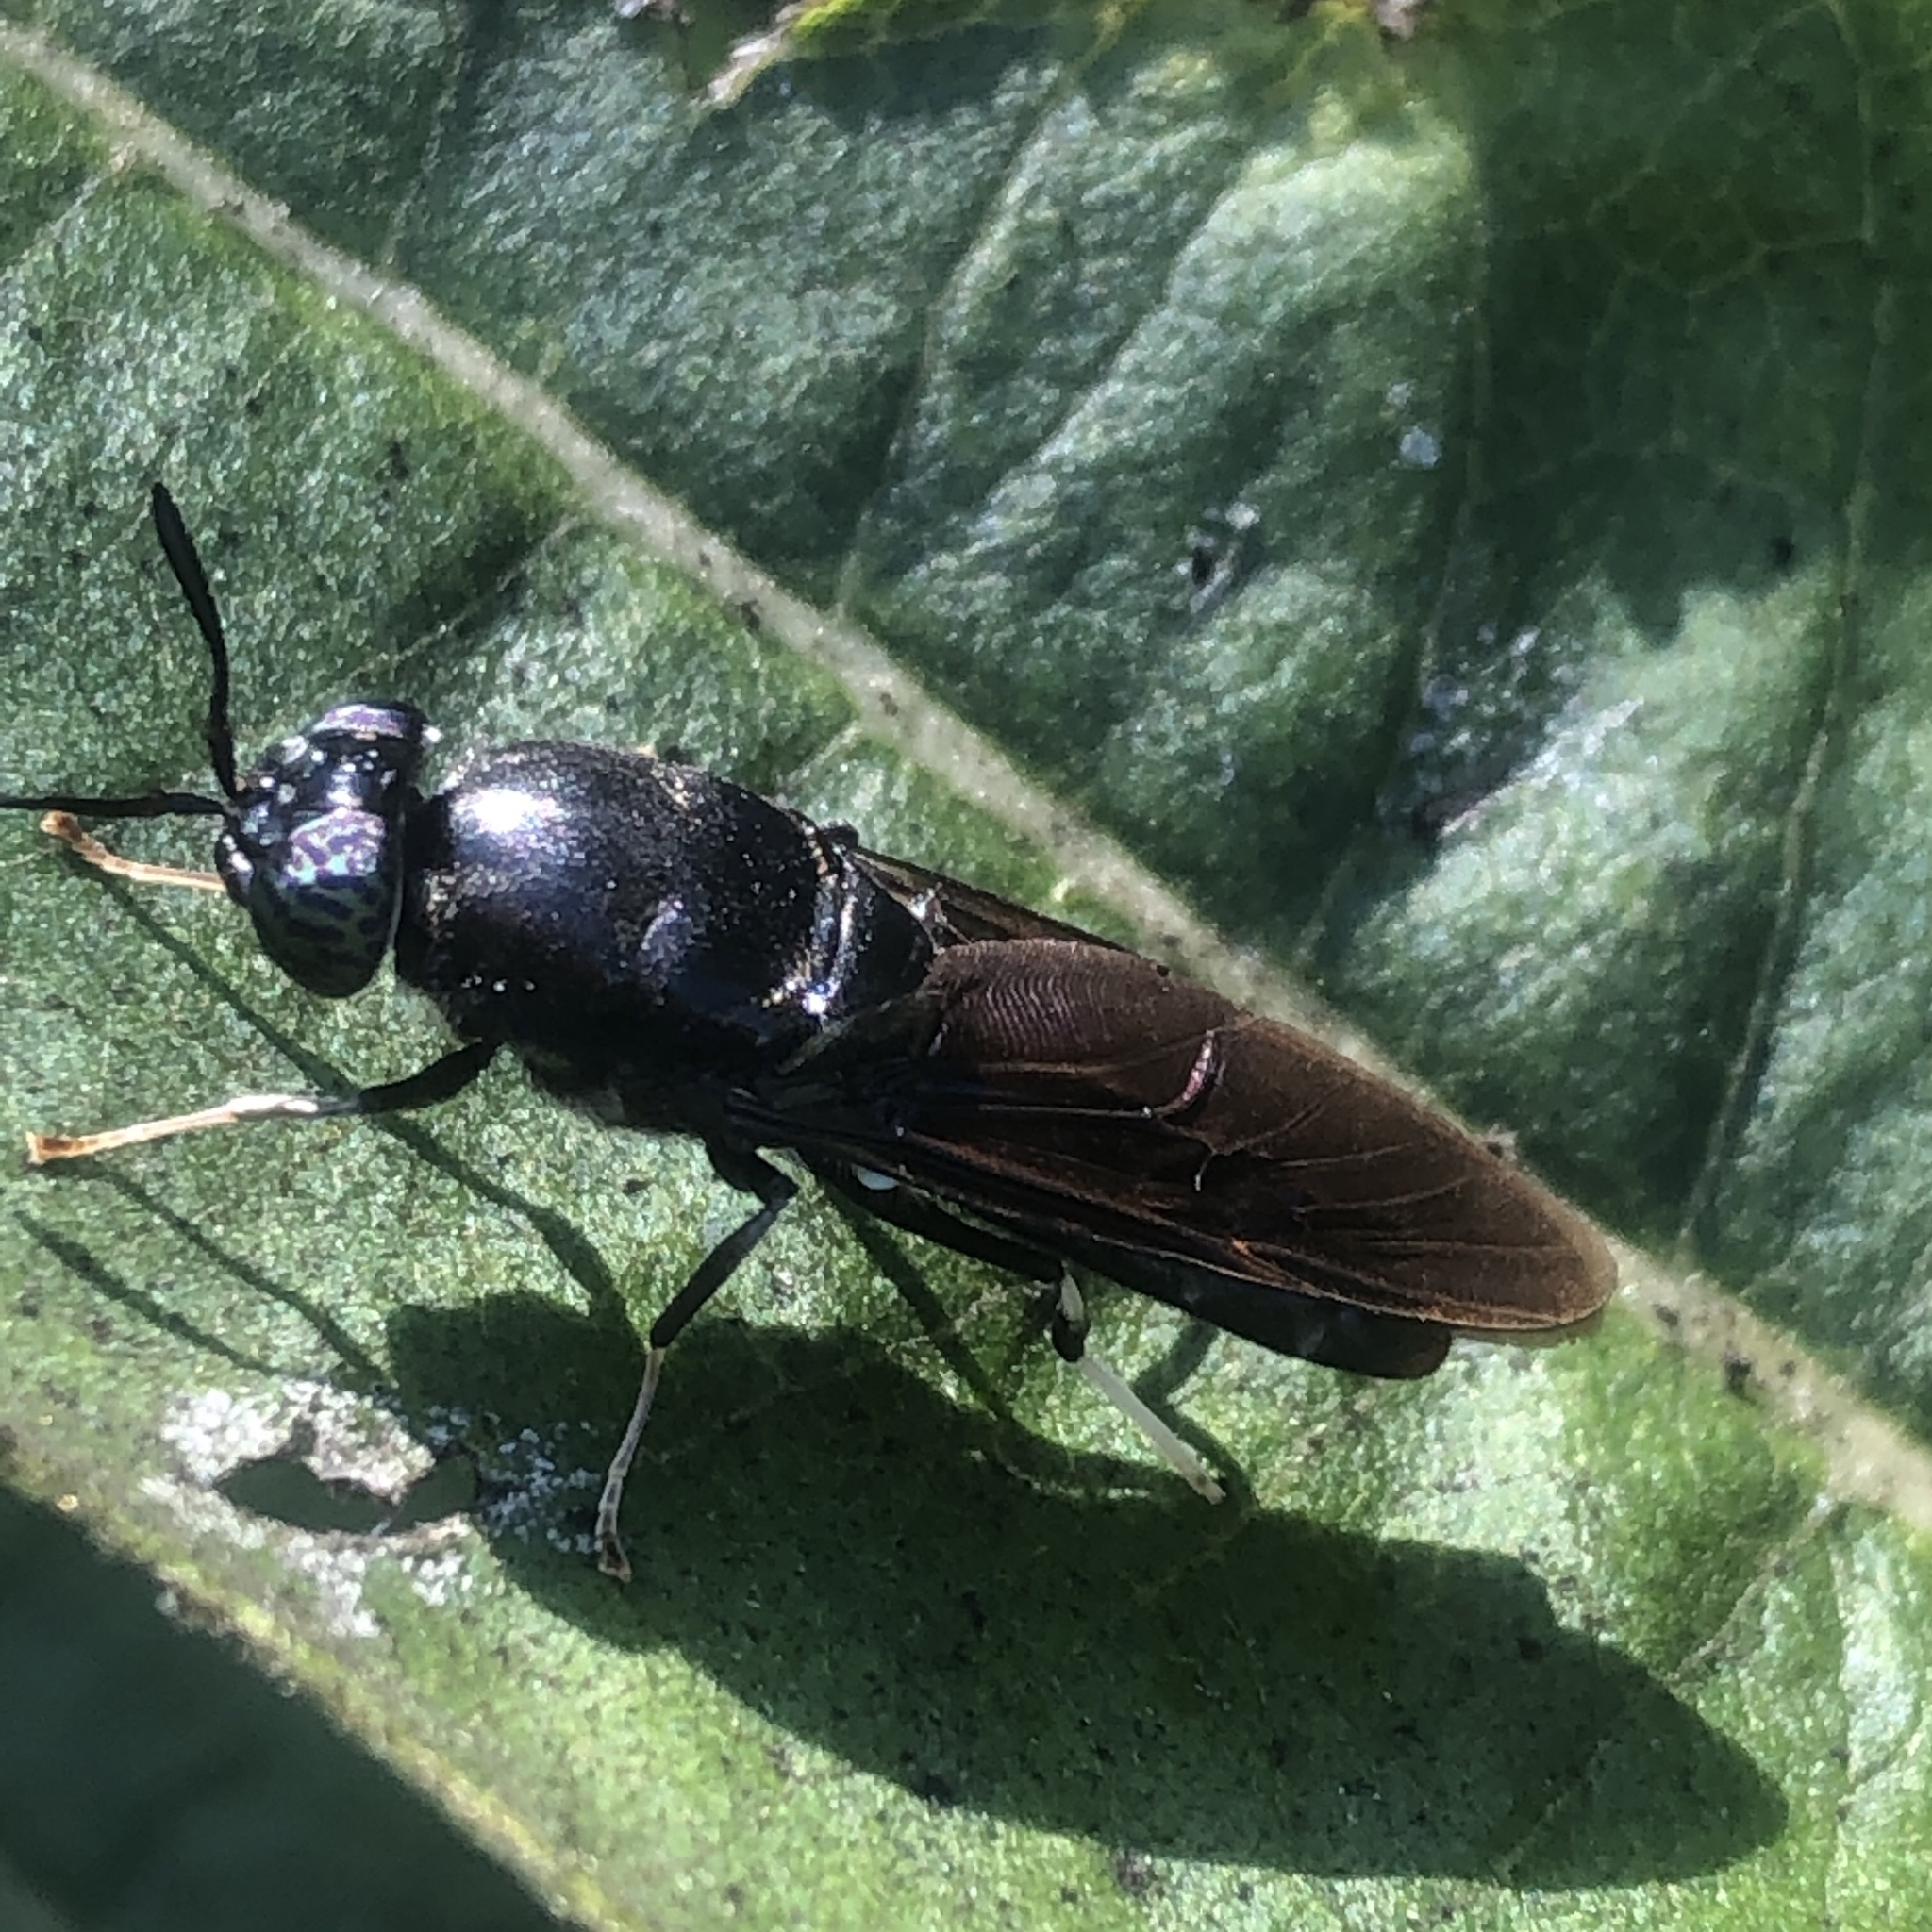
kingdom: Animalia
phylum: Arthropoda
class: Insecta
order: Diptera
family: Stratiomyidae
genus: Hermetia
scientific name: Hermetia illucens
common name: Black soldier fly
